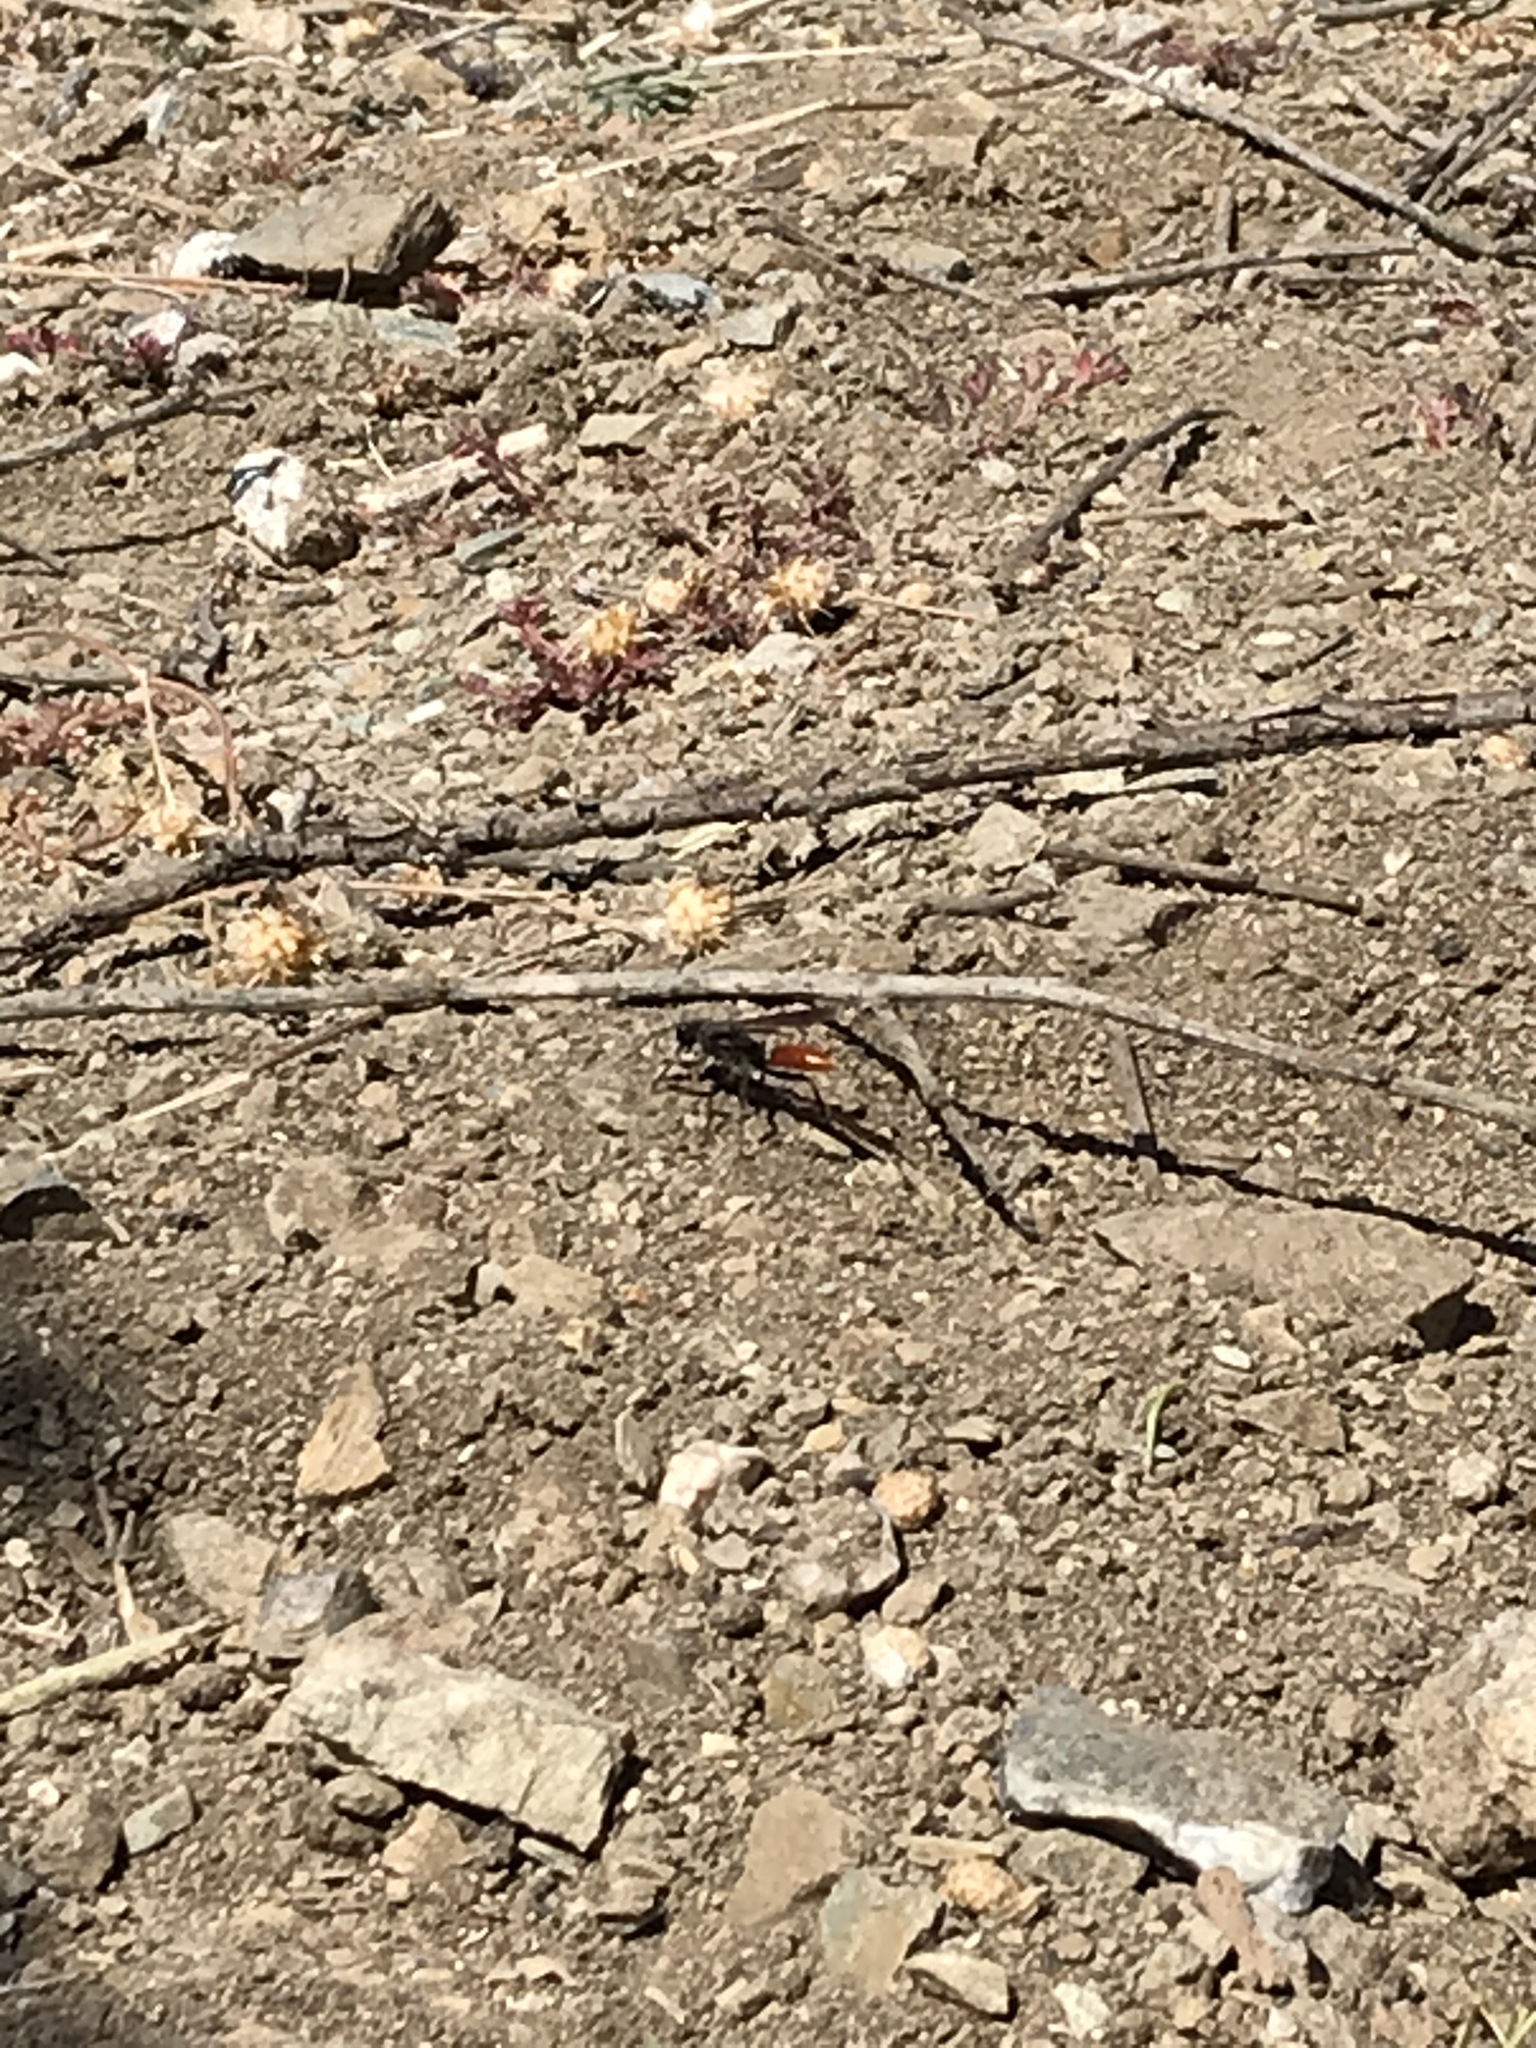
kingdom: Animalia
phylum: Arthropoda
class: Insecta
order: Hymenoptera
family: Sphecidae
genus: Sphex
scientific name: Sphex lucae
